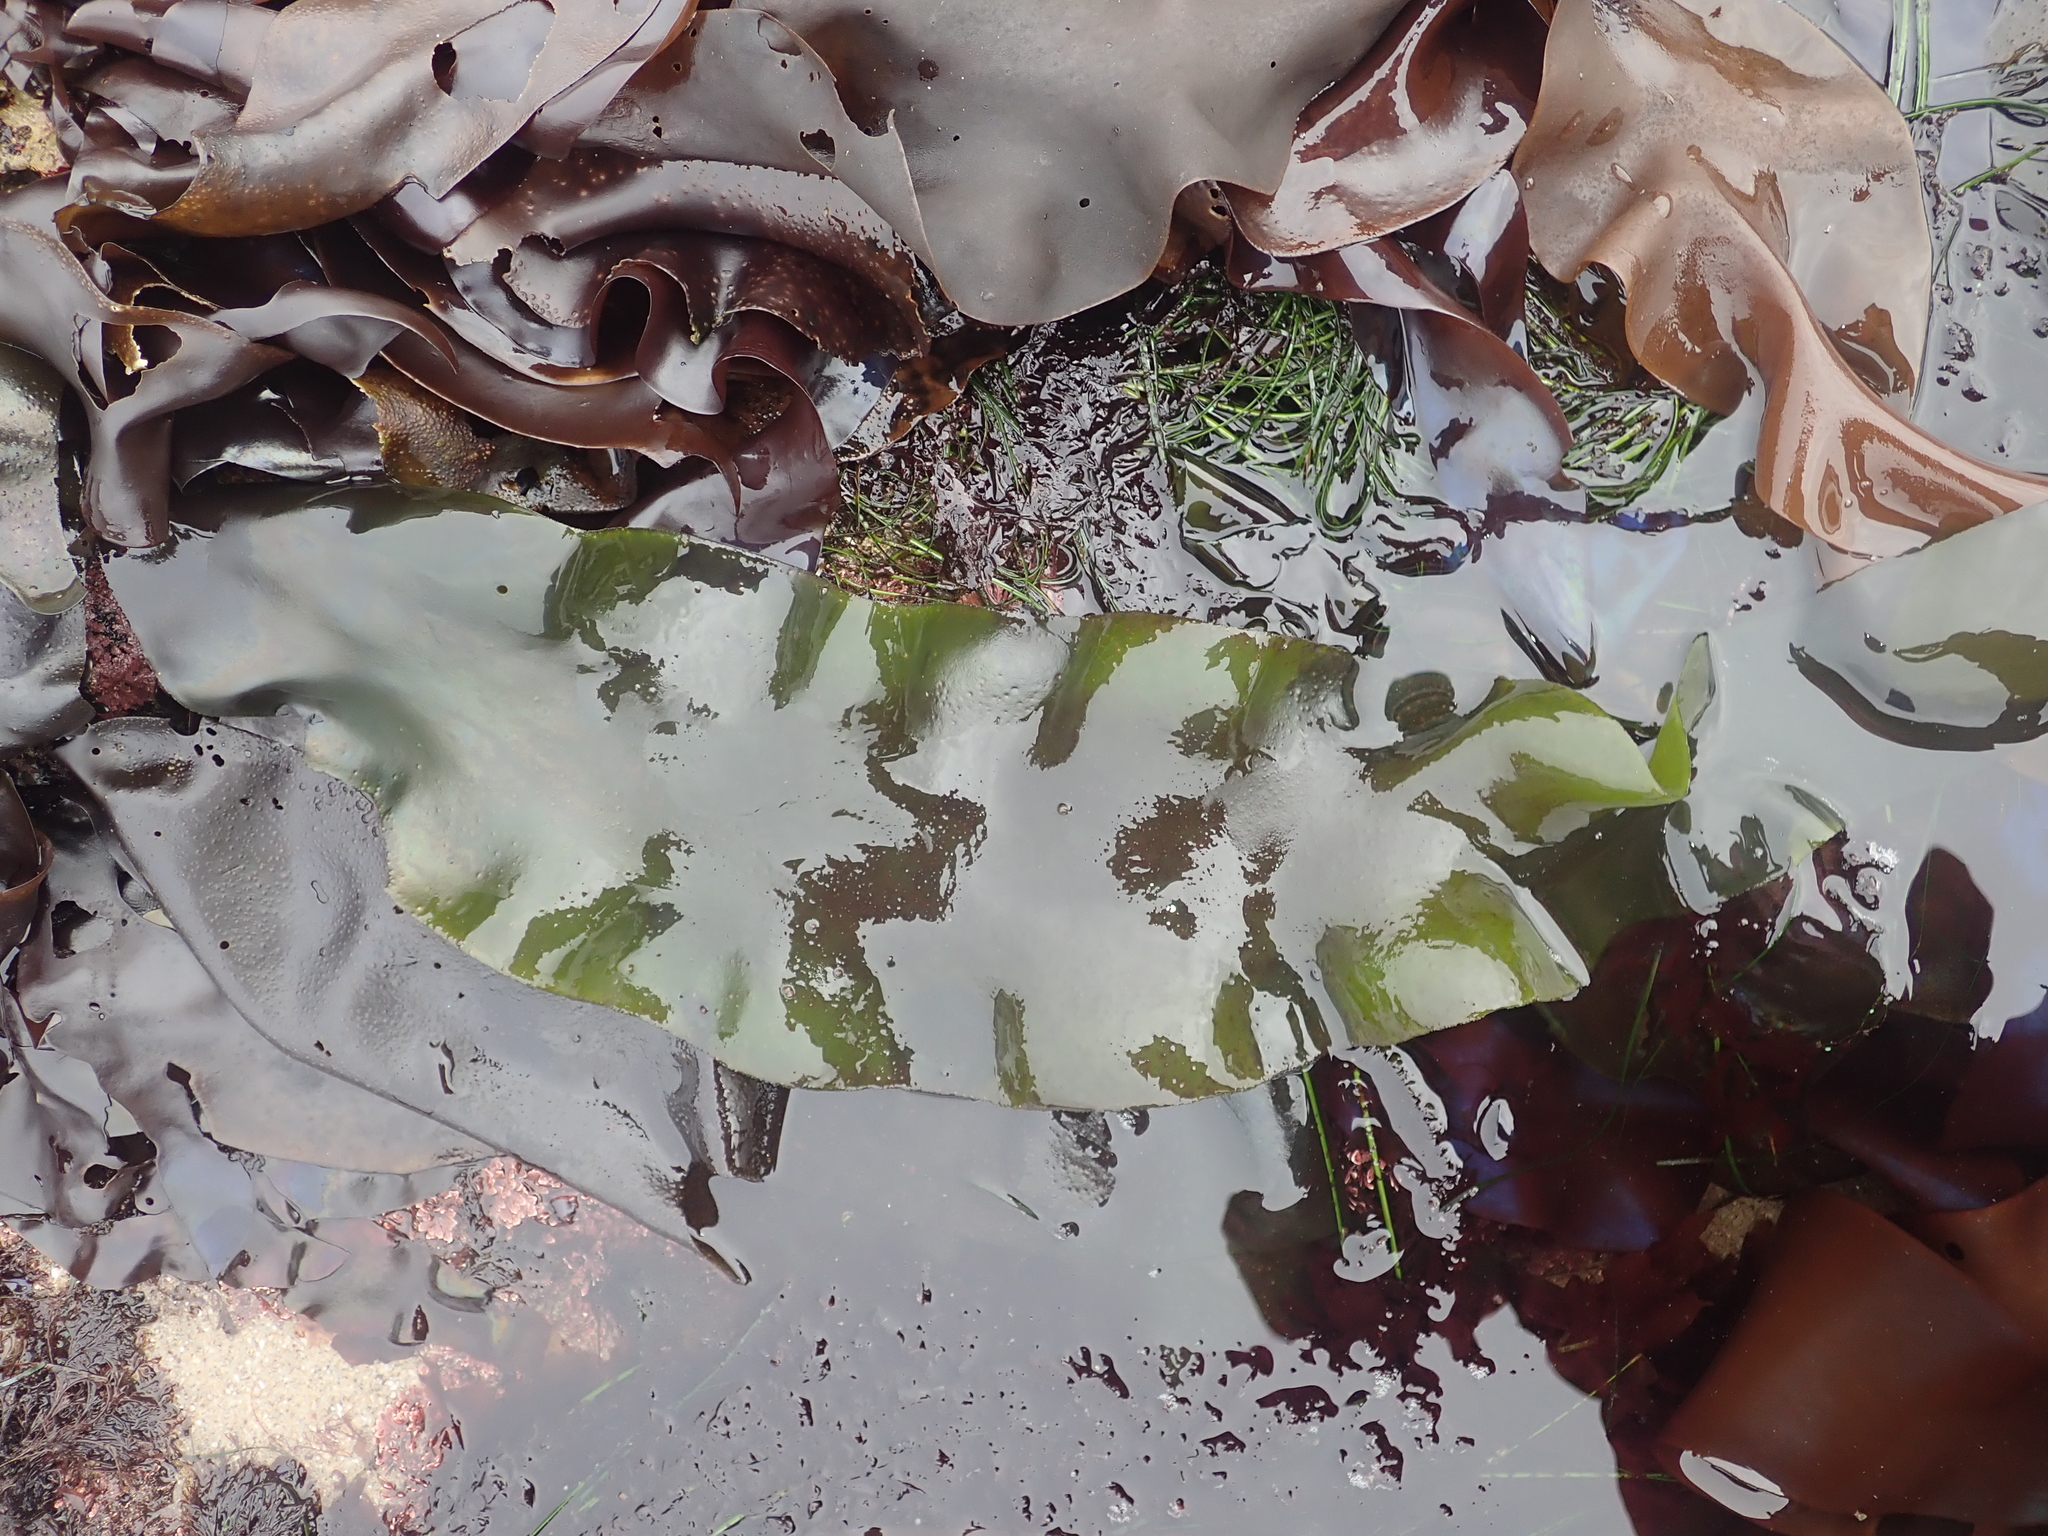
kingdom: Plantae
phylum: Rhodophyta
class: Florideophyceae
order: Gigartinales
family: Gigartinaceae
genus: Mazzaella
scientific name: Mazzaella flaccida
